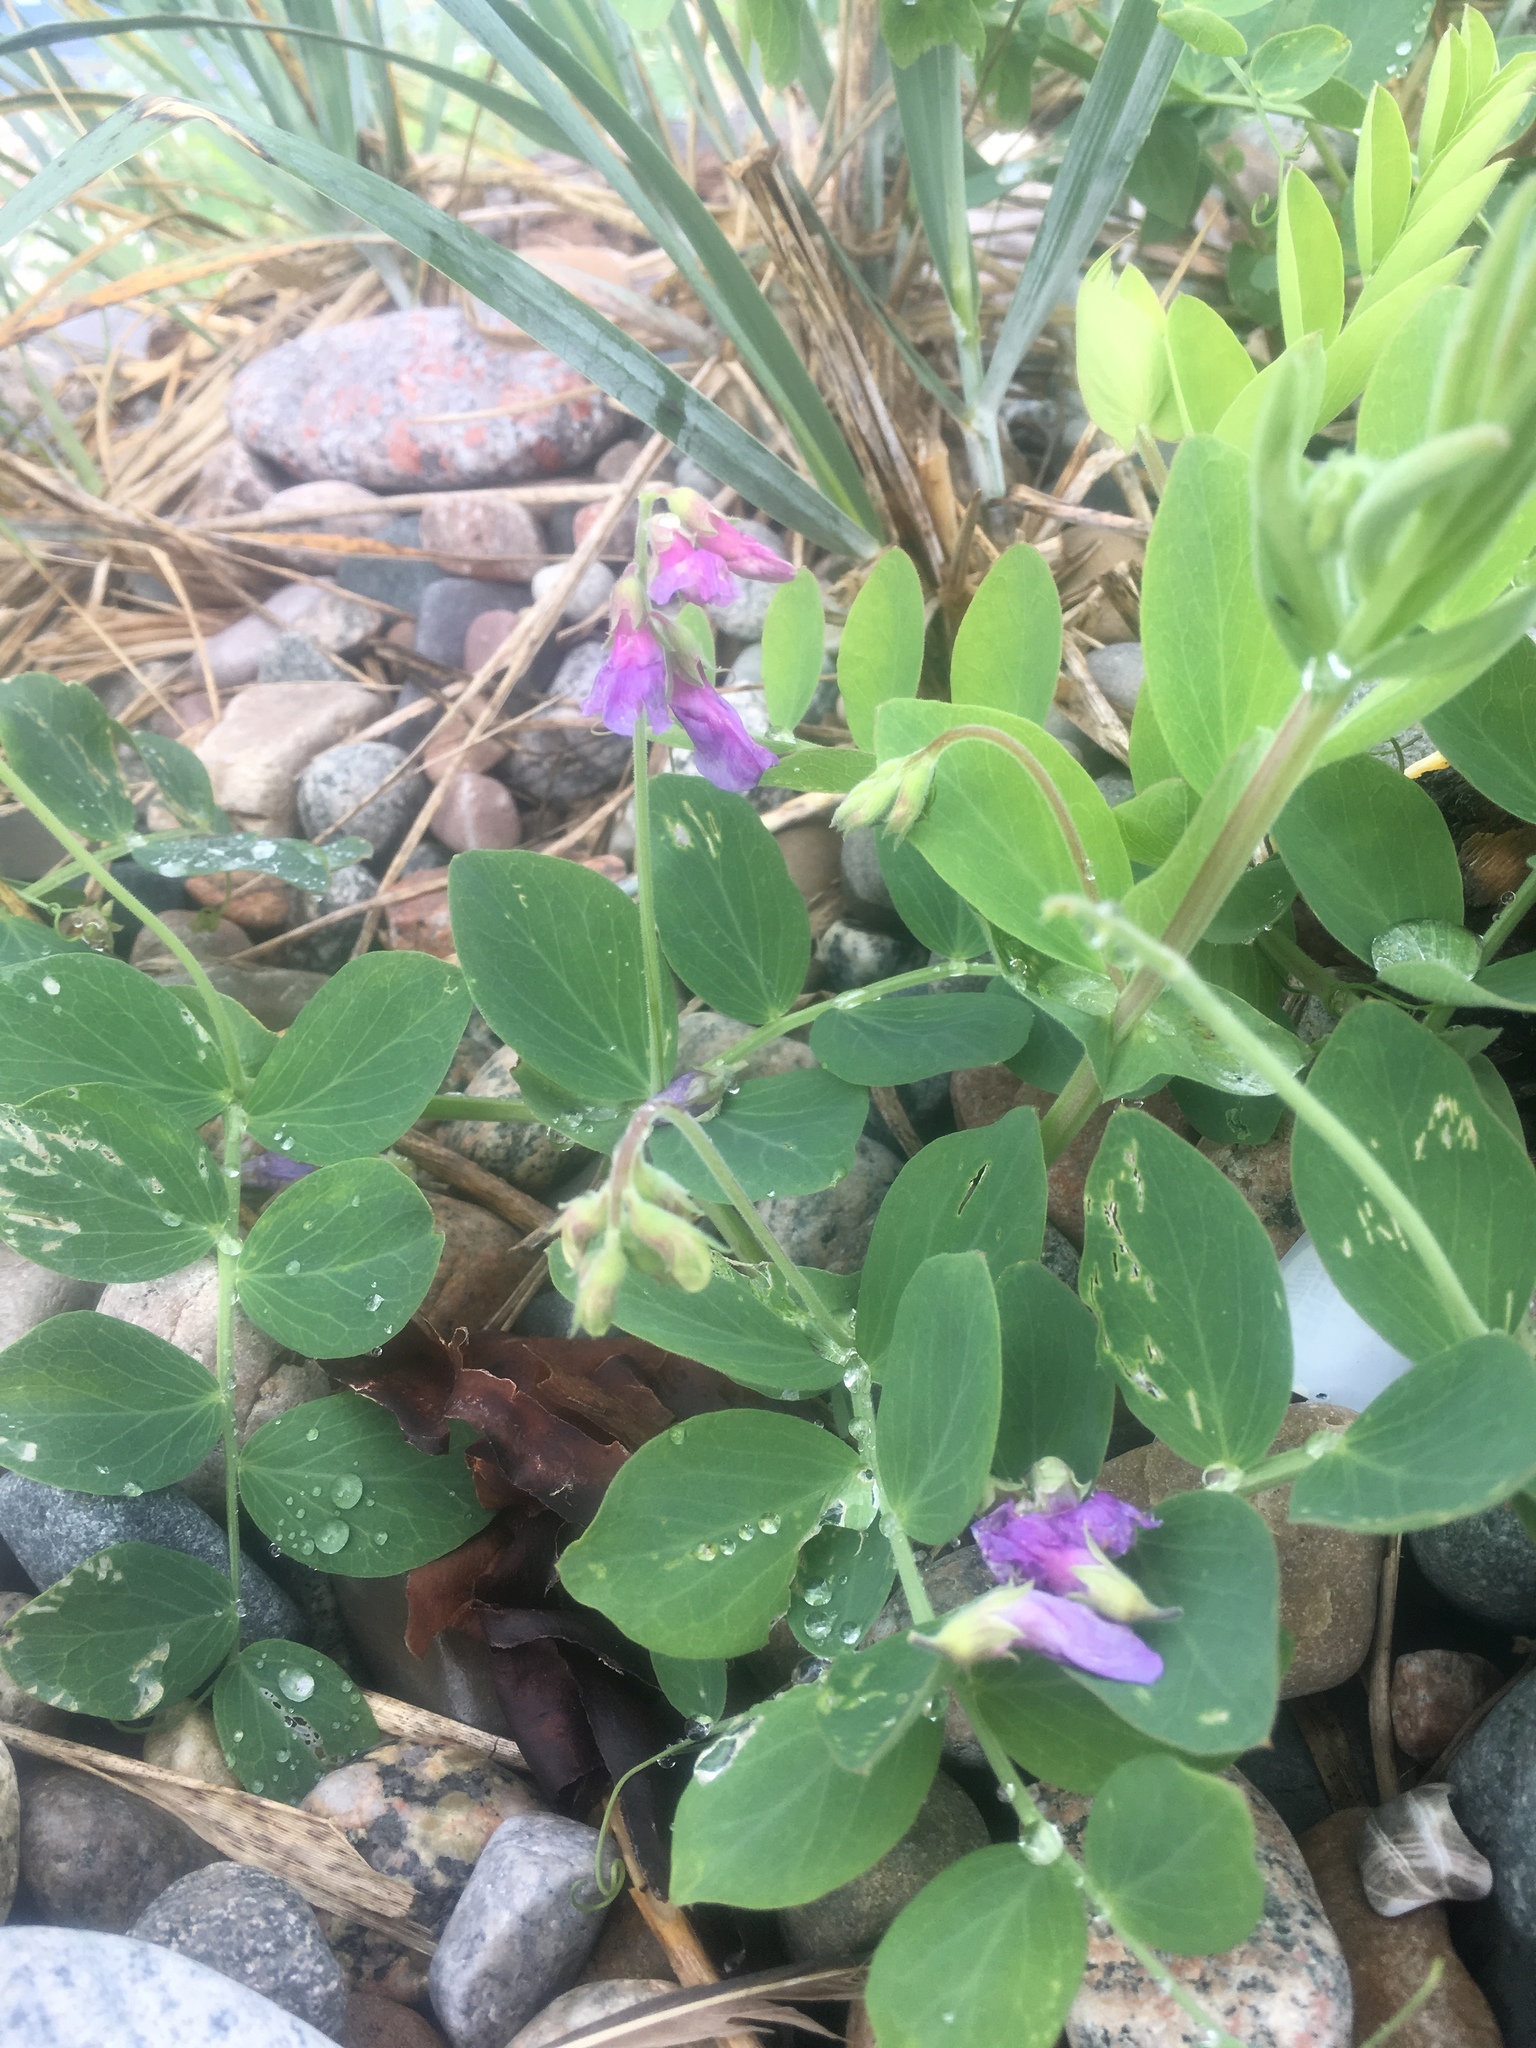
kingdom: Plantae
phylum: Tracheophyta
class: Magnoliopsida
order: Fabales
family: Fabaceae
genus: Lathyrus
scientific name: Lathyrus japonicus
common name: Sea pea
